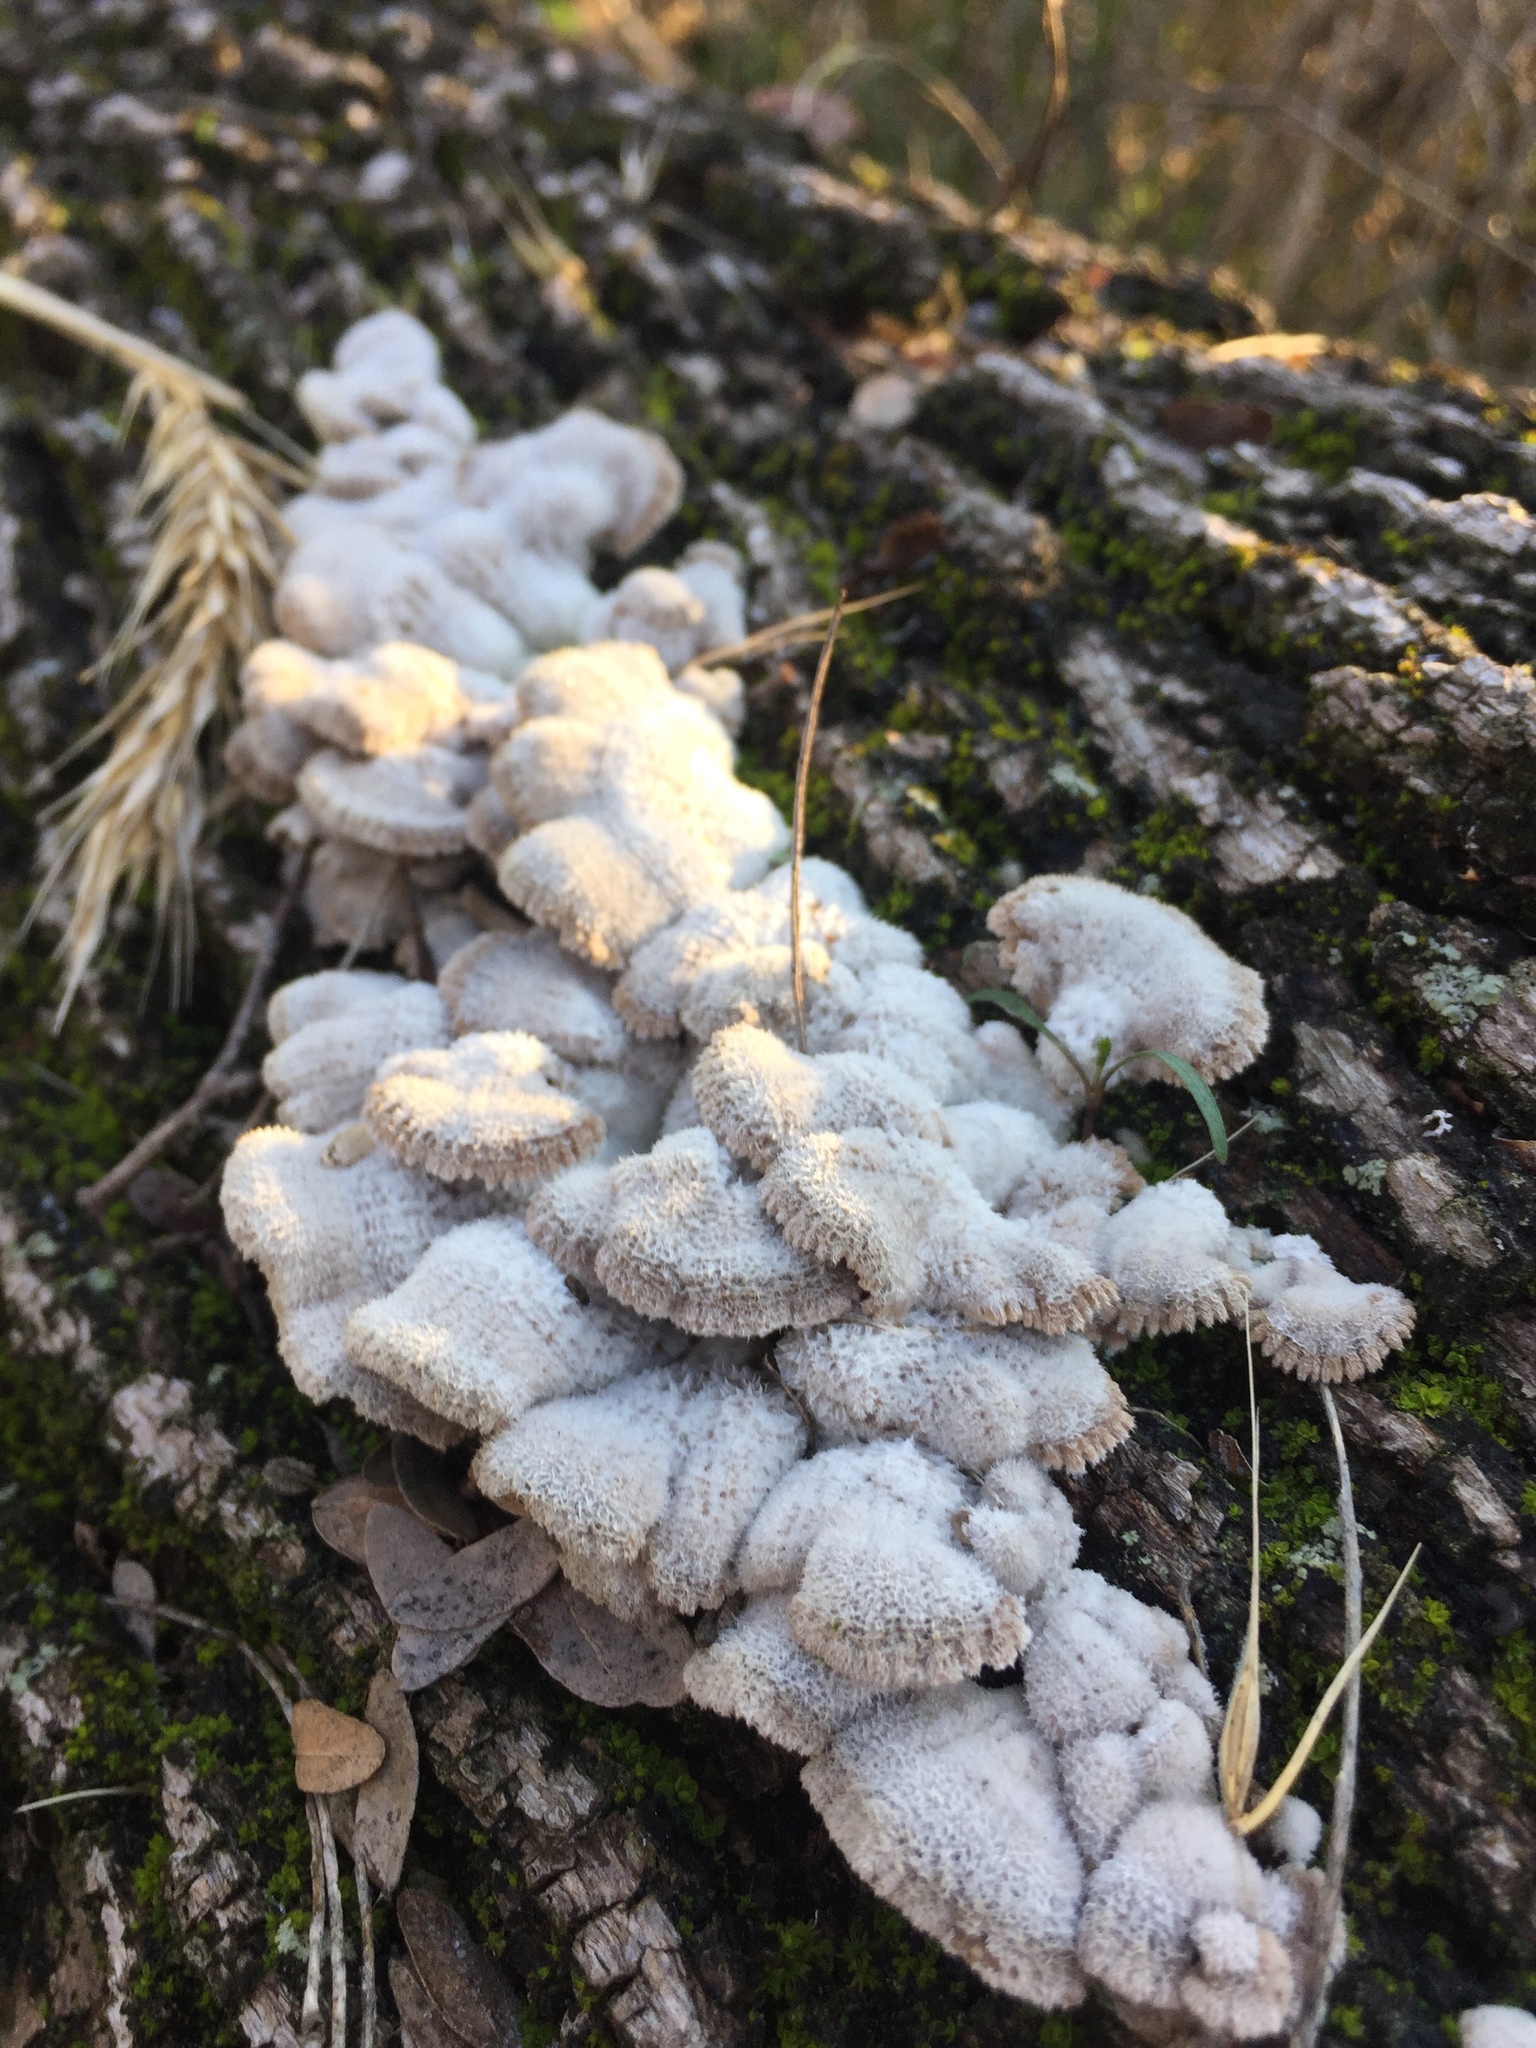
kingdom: Fungi
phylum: Basidiomycota
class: Agaricomycetes
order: Agaricales
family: Schizophyllaceae
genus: Schizophyllum
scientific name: Schizophyllum commune
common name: Common porecrust
